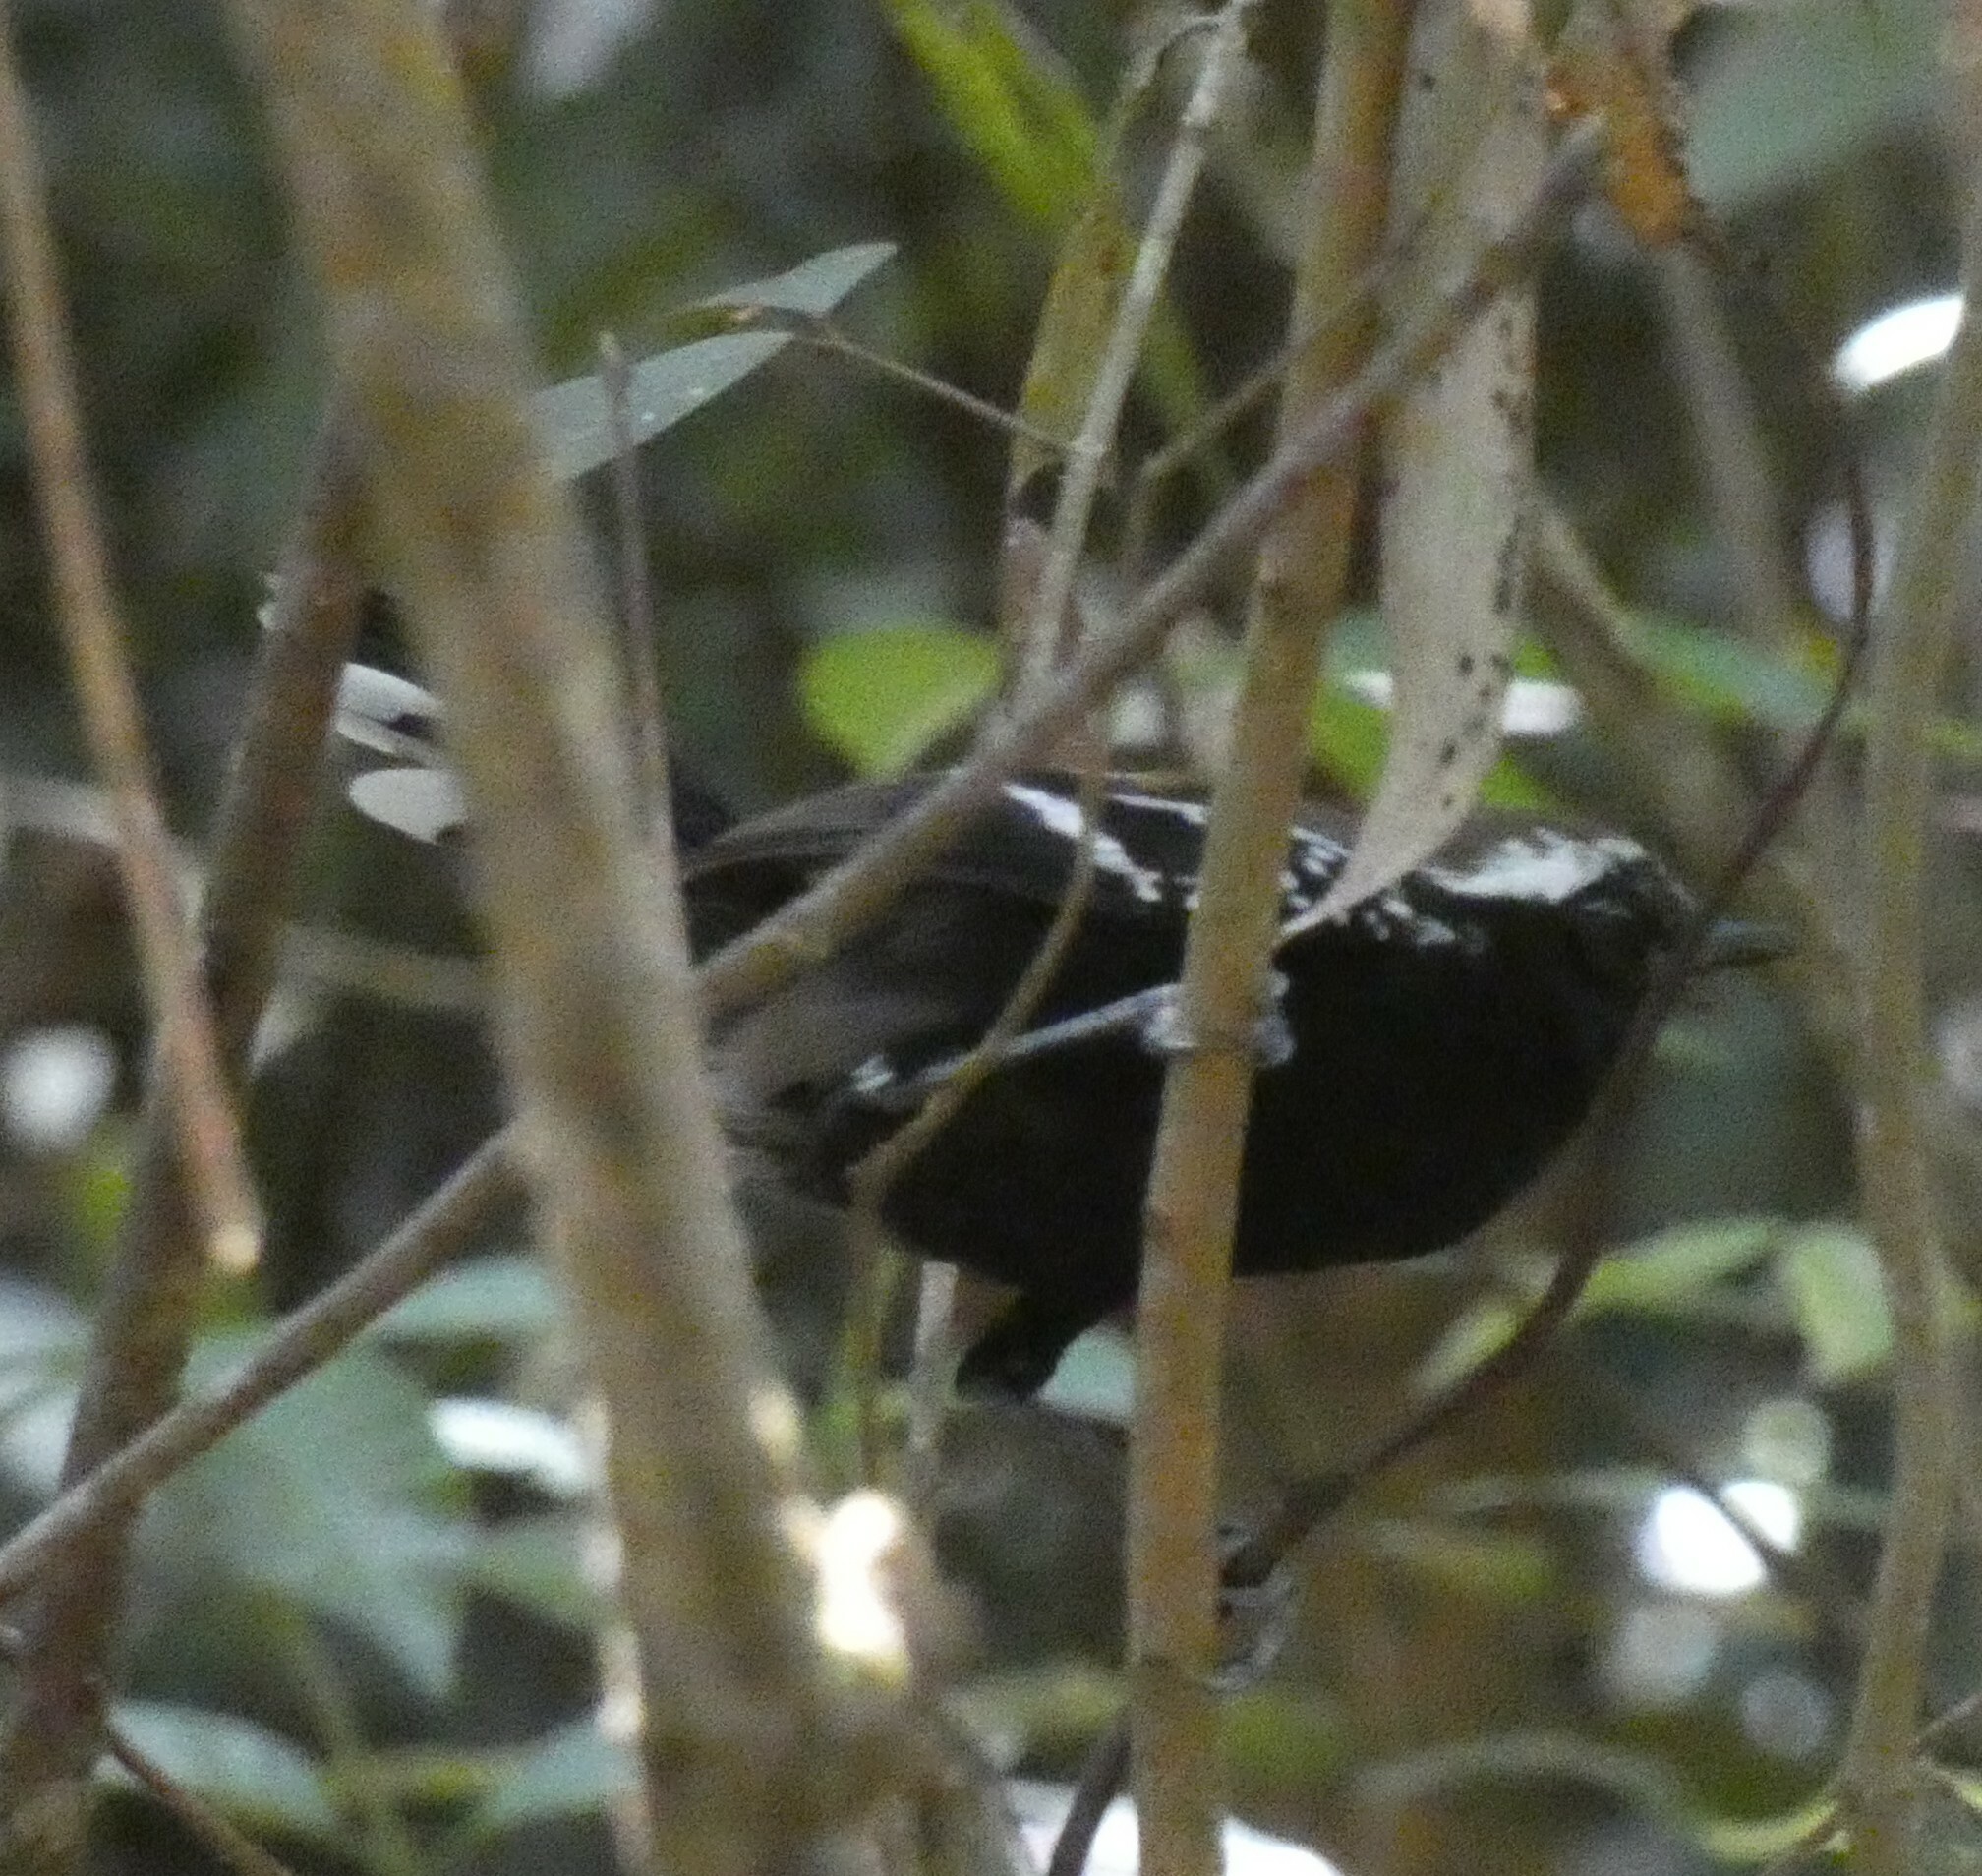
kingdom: Animalia
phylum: Chordata
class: Aves
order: Passeriformes
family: Thamnophilidae
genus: Formicivora
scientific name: Formicivora serrana
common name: Serra antwren
